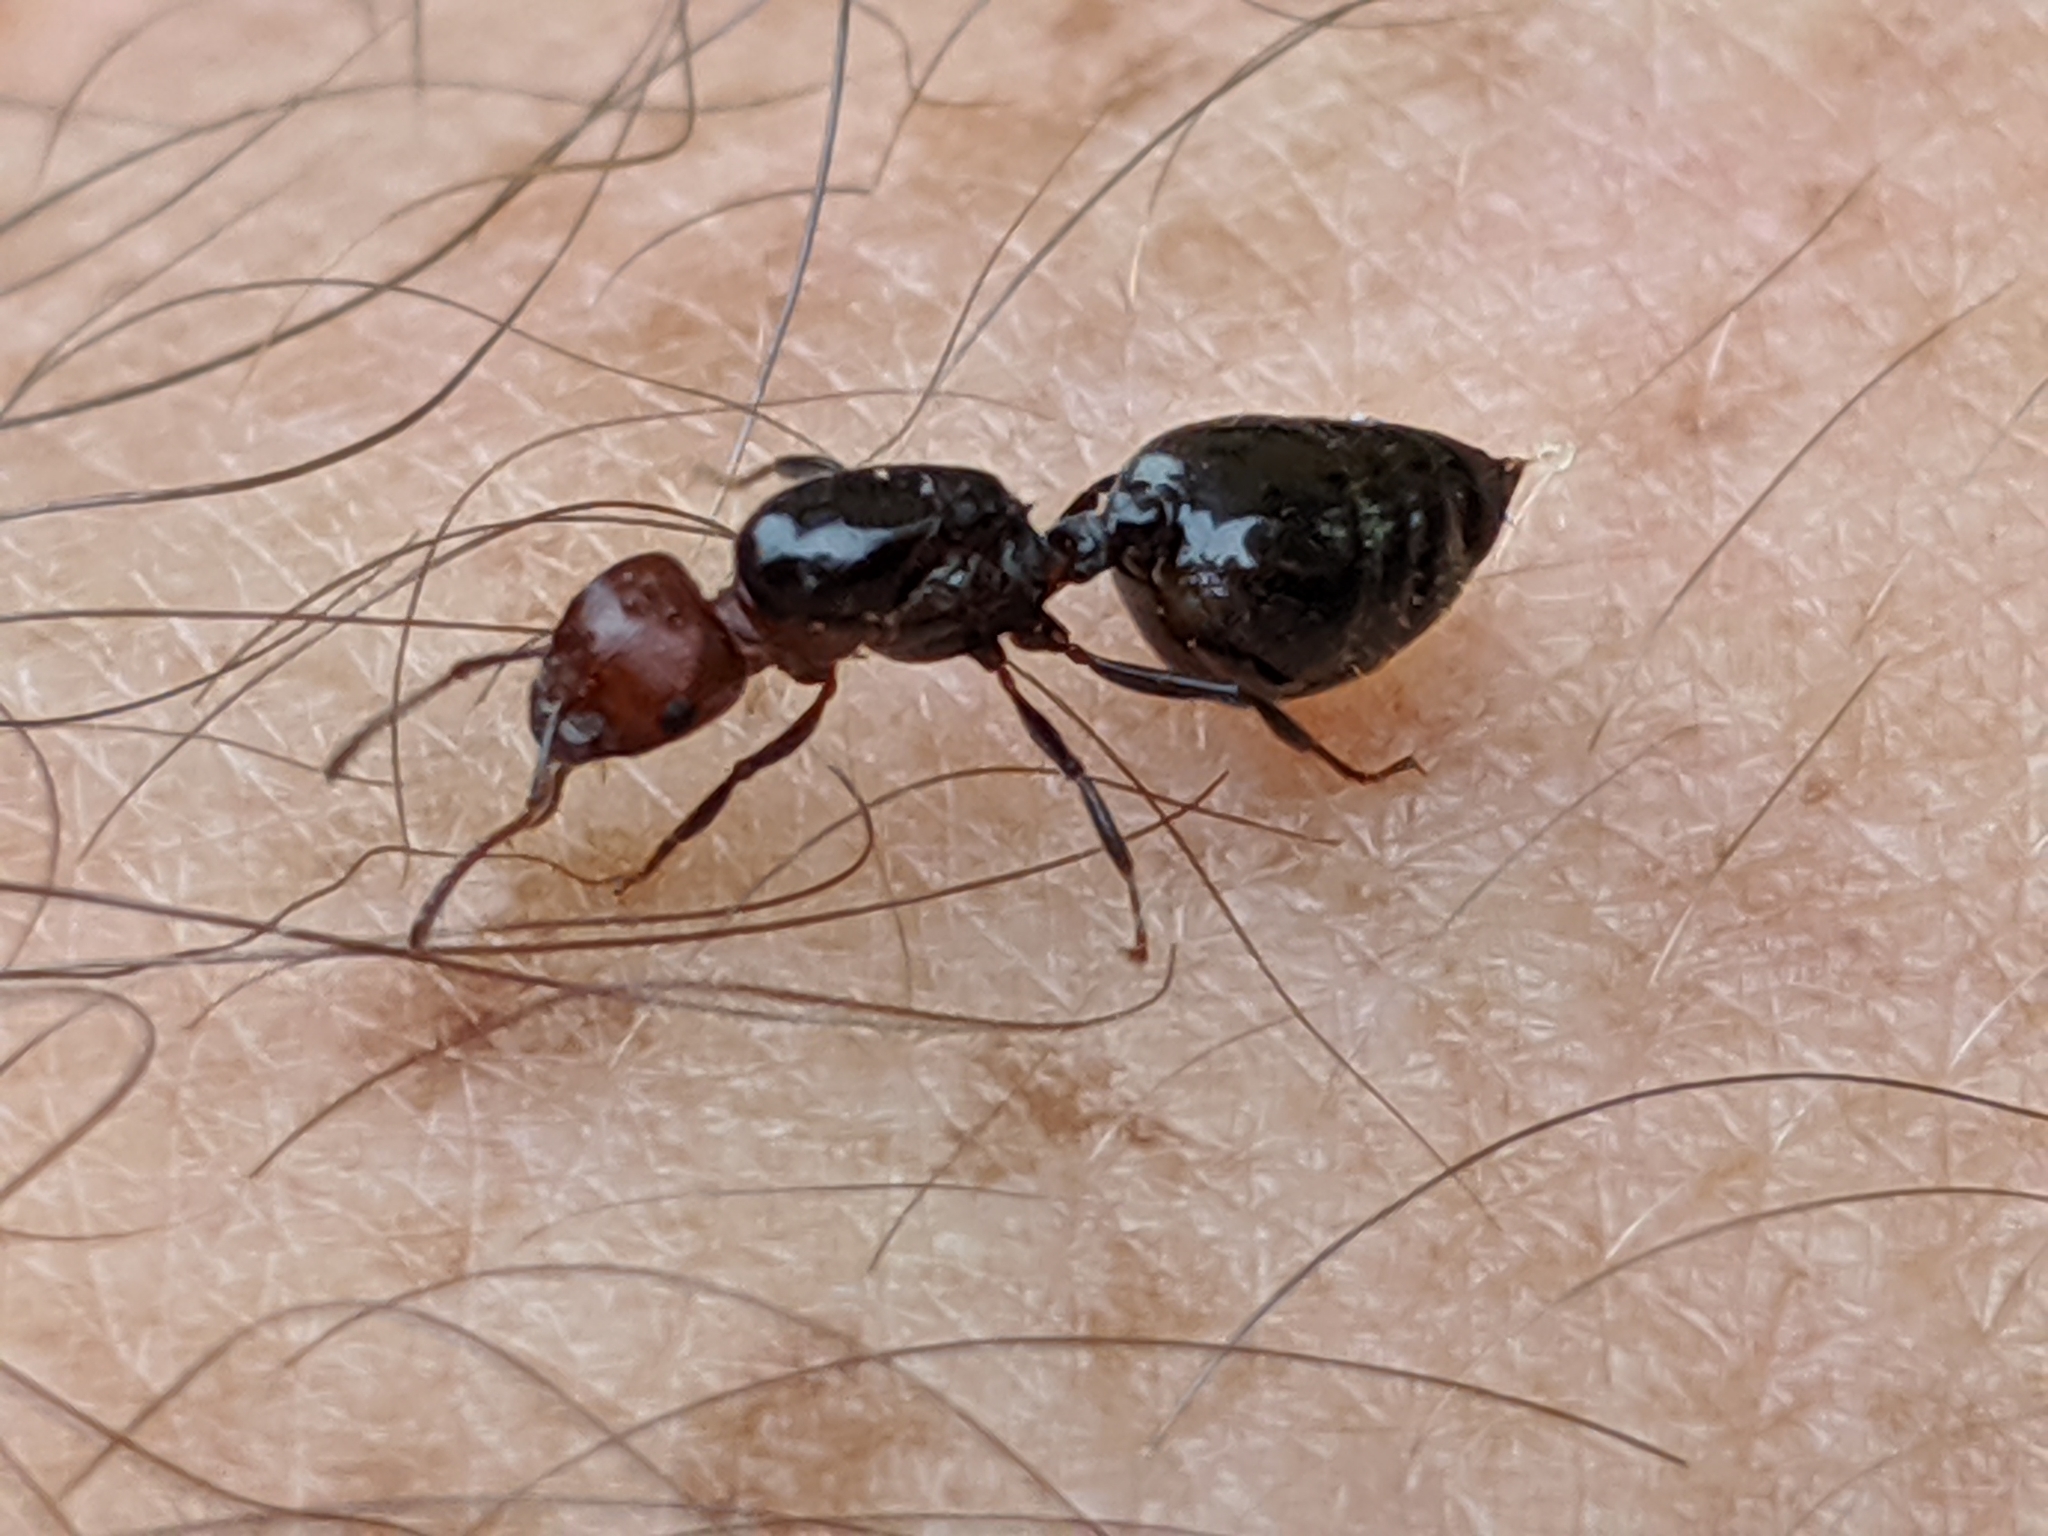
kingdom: Animalia
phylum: Arthropoda
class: Insecta
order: Hymenoptera
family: Formicidae
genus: Crematogaster
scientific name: Crematogaster scutellaris
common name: Fourmi du liège
